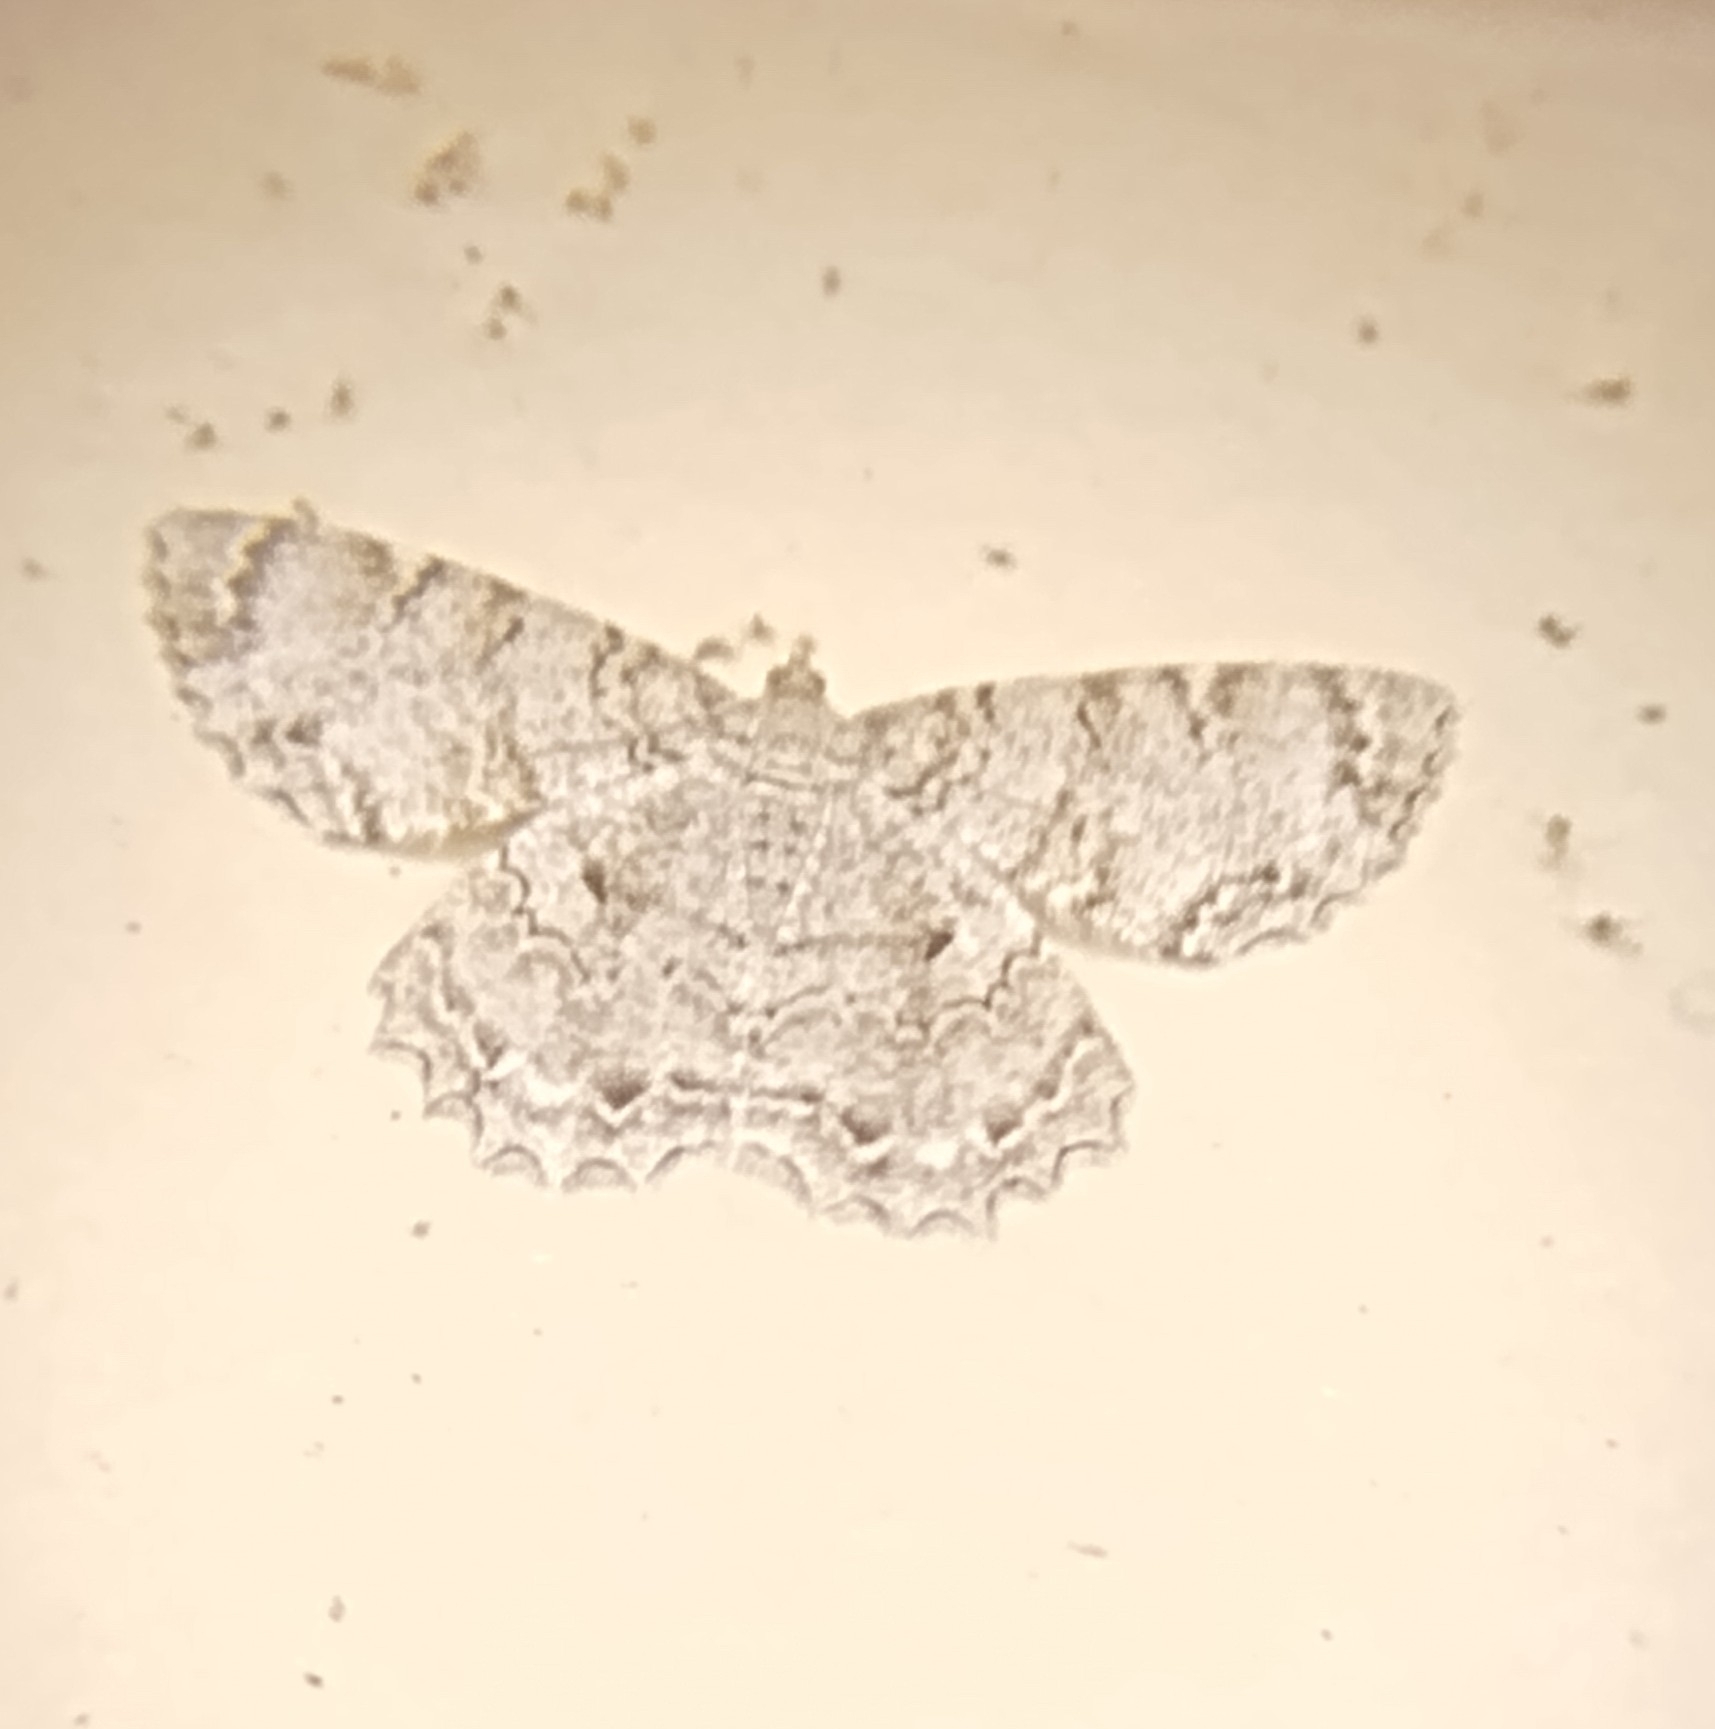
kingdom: Animalia
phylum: Arthropoda
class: Insecta
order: Lepidoptera
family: Geometridae
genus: Epimecis
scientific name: Epimecis hortaria
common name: Tulip-tree beauty
